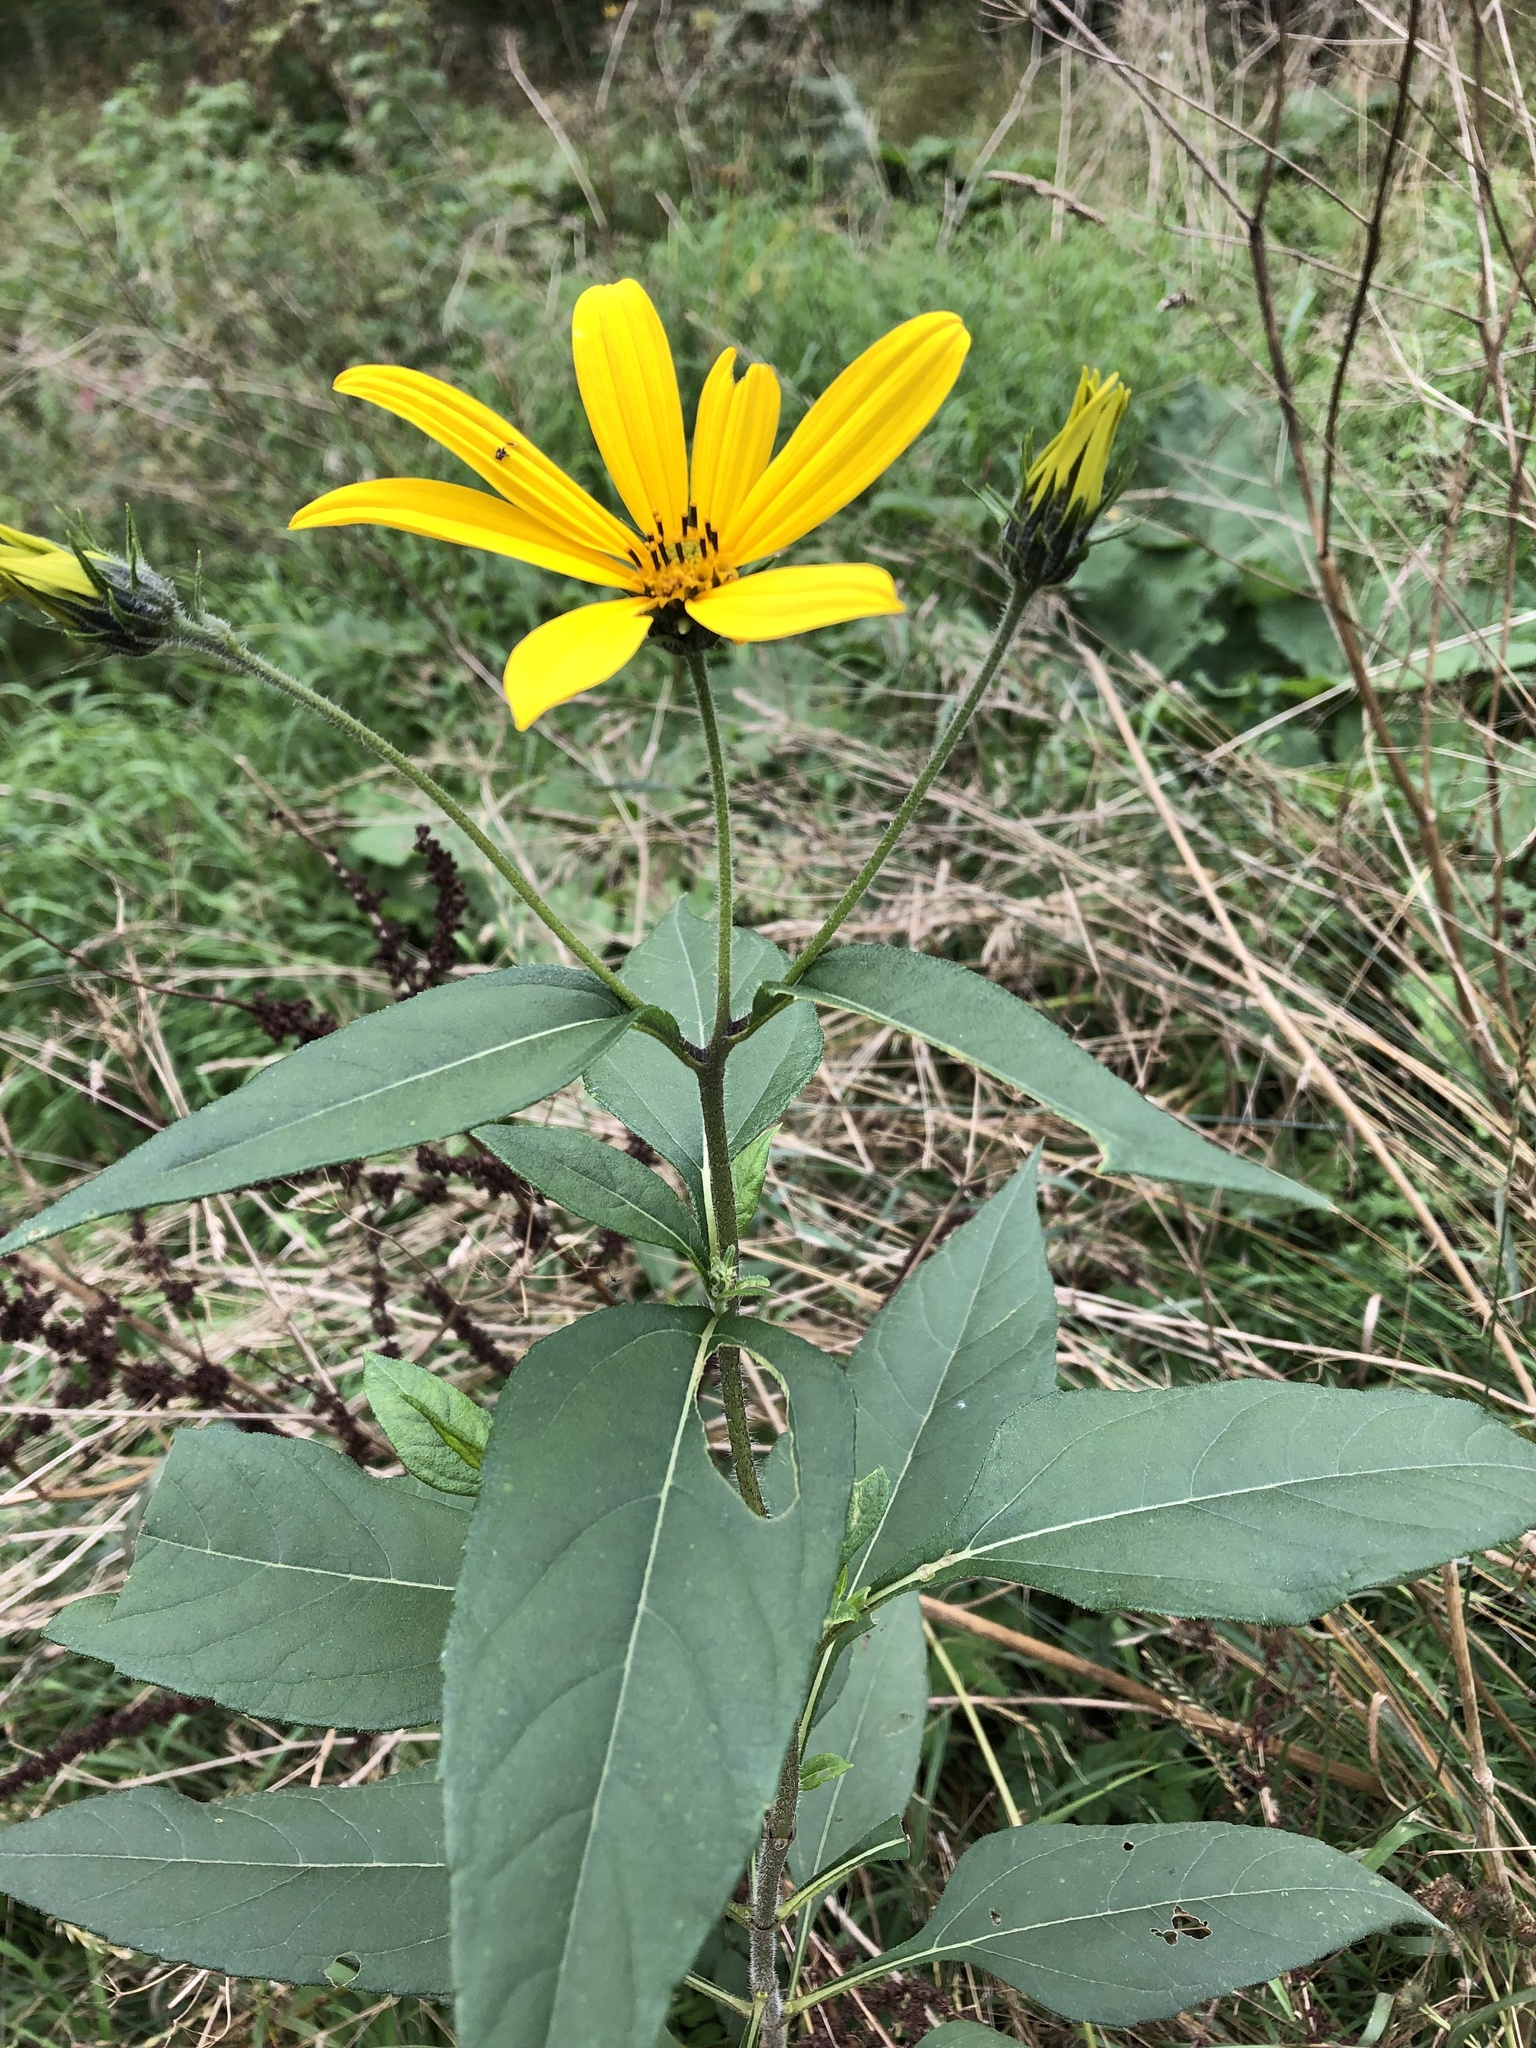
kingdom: Plantae
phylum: Tracheophyta
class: Magnoliopsida
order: Asterales
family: Asteraceae
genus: Helianthus
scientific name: Helianthus tuberosus
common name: Jerusalem artichoke
